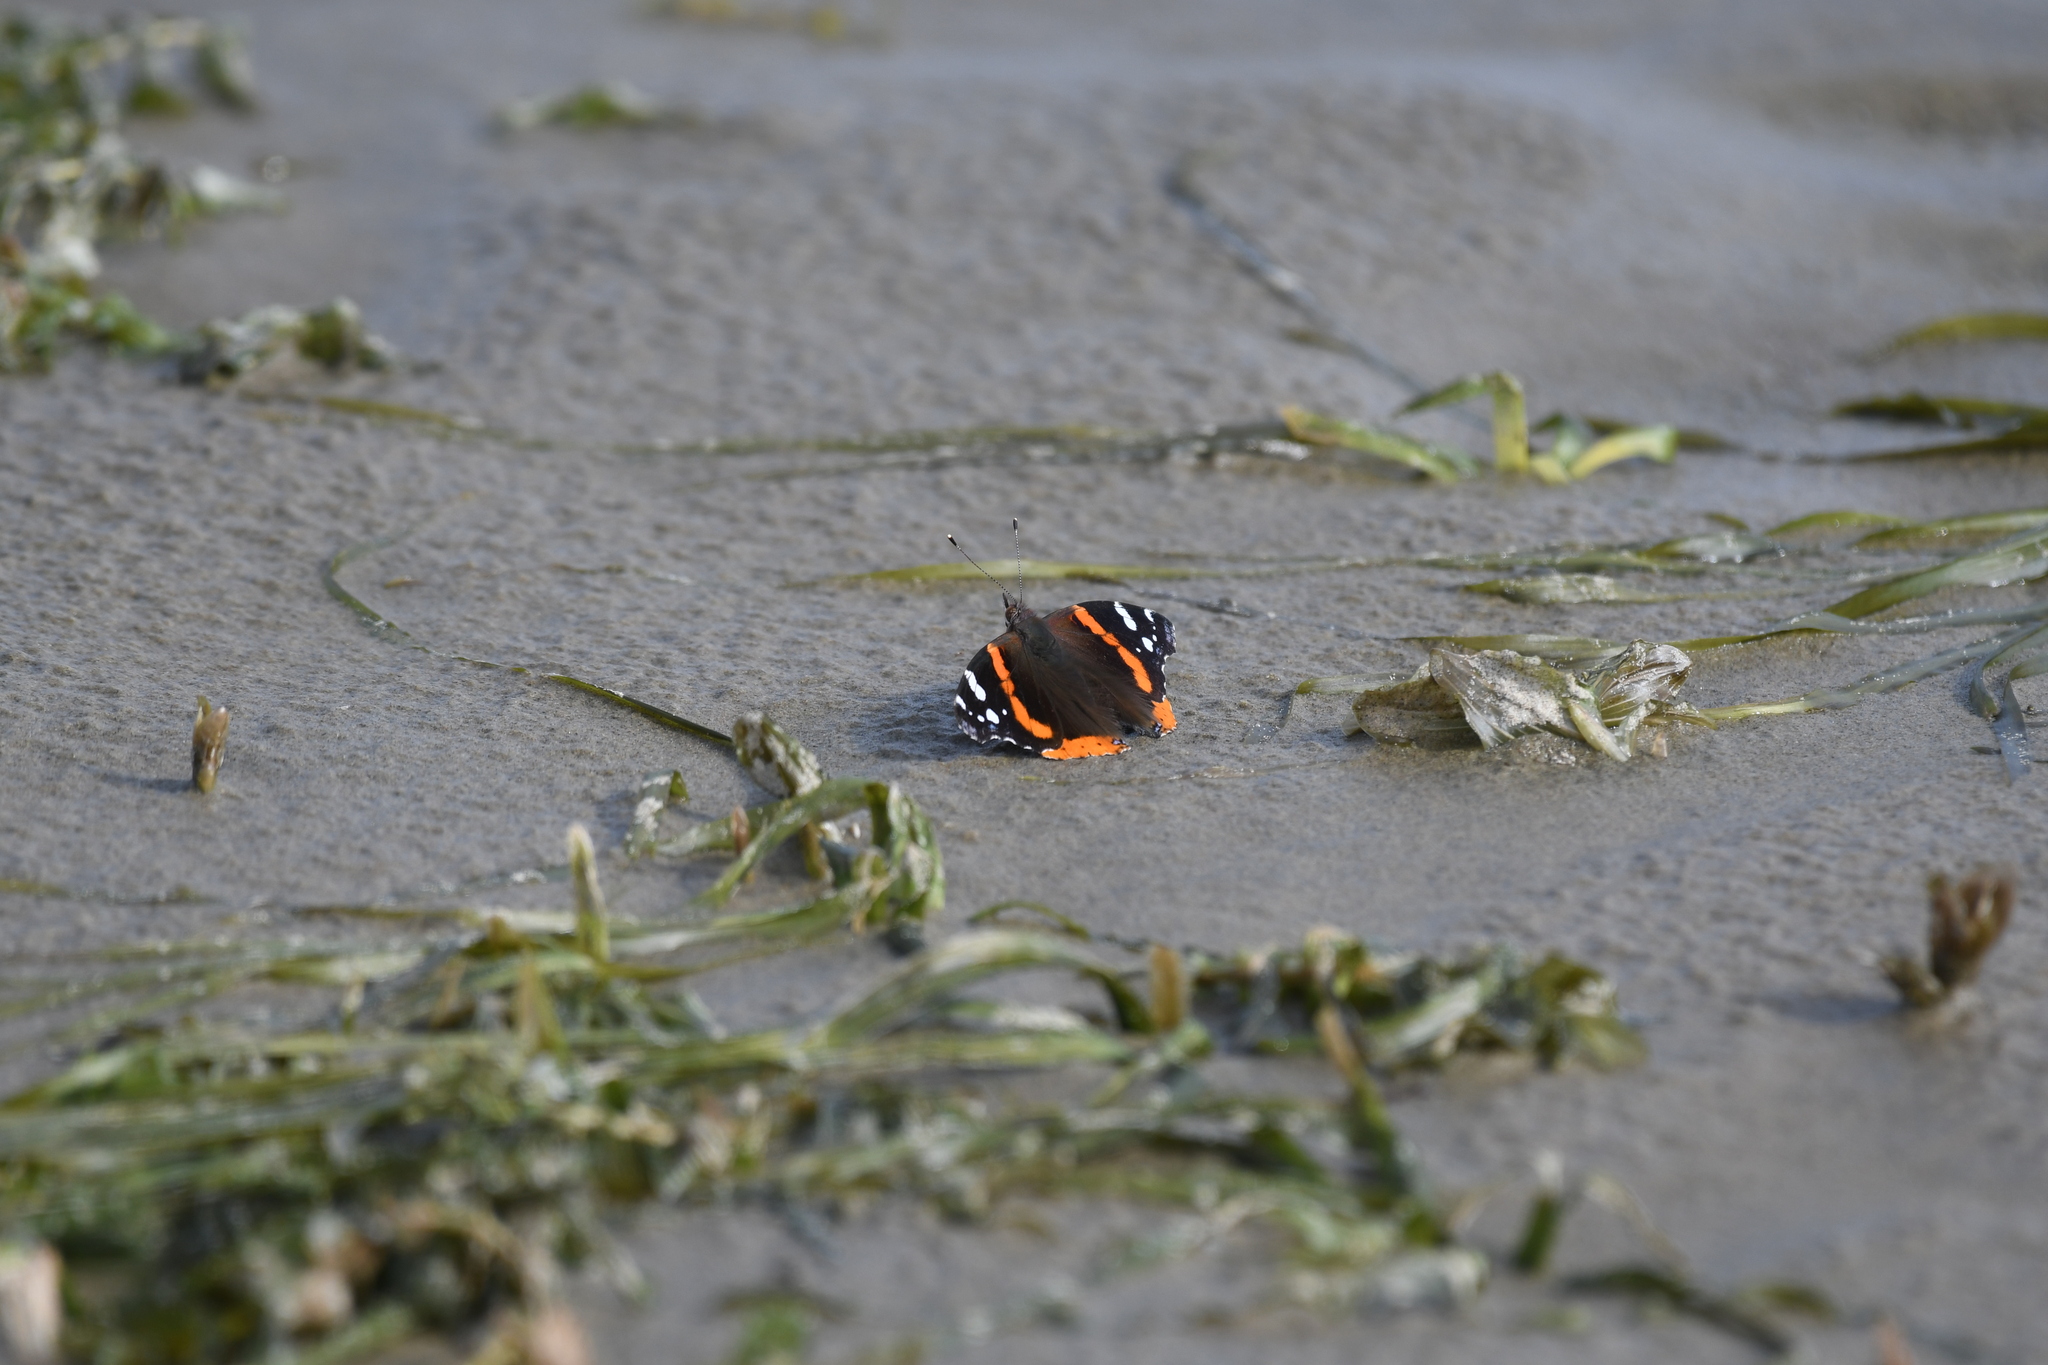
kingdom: Animalia
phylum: Arthropoda
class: Insecta
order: Lepidoptera
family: Nymphalidae
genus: Vanessa
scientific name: Vanessa atalanta
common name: Red admiral
